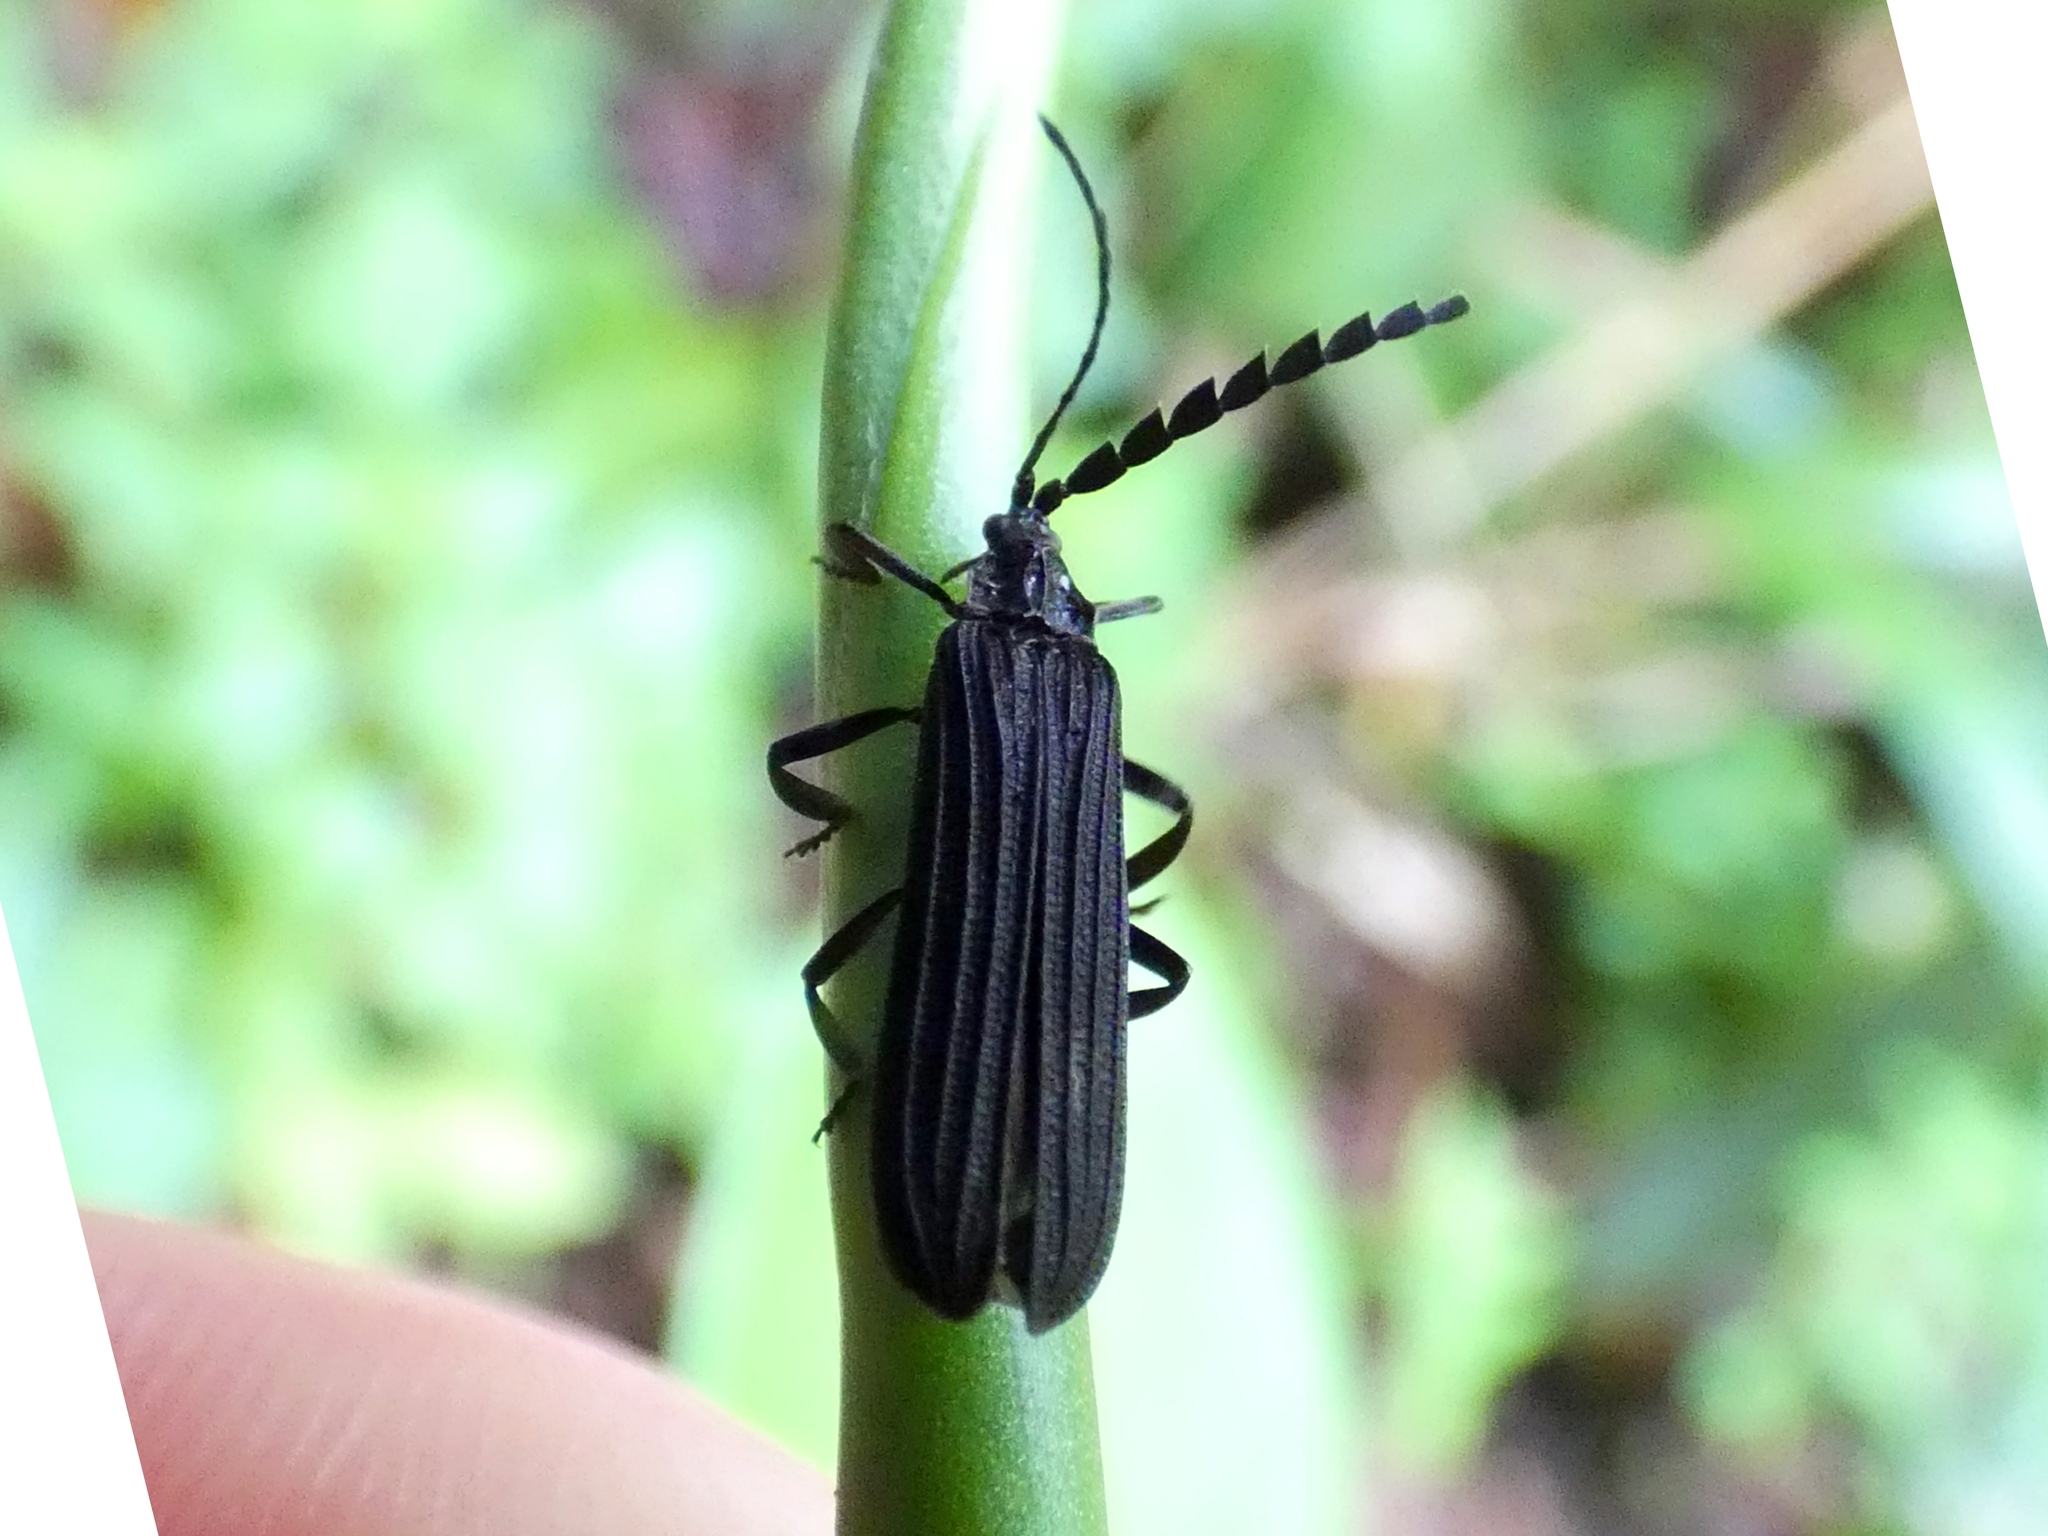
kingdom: Animalia
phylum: Arthropoda
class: Insecta
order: Coleoptera
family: Lycidae
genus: Trichalus
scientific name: Trichalus
